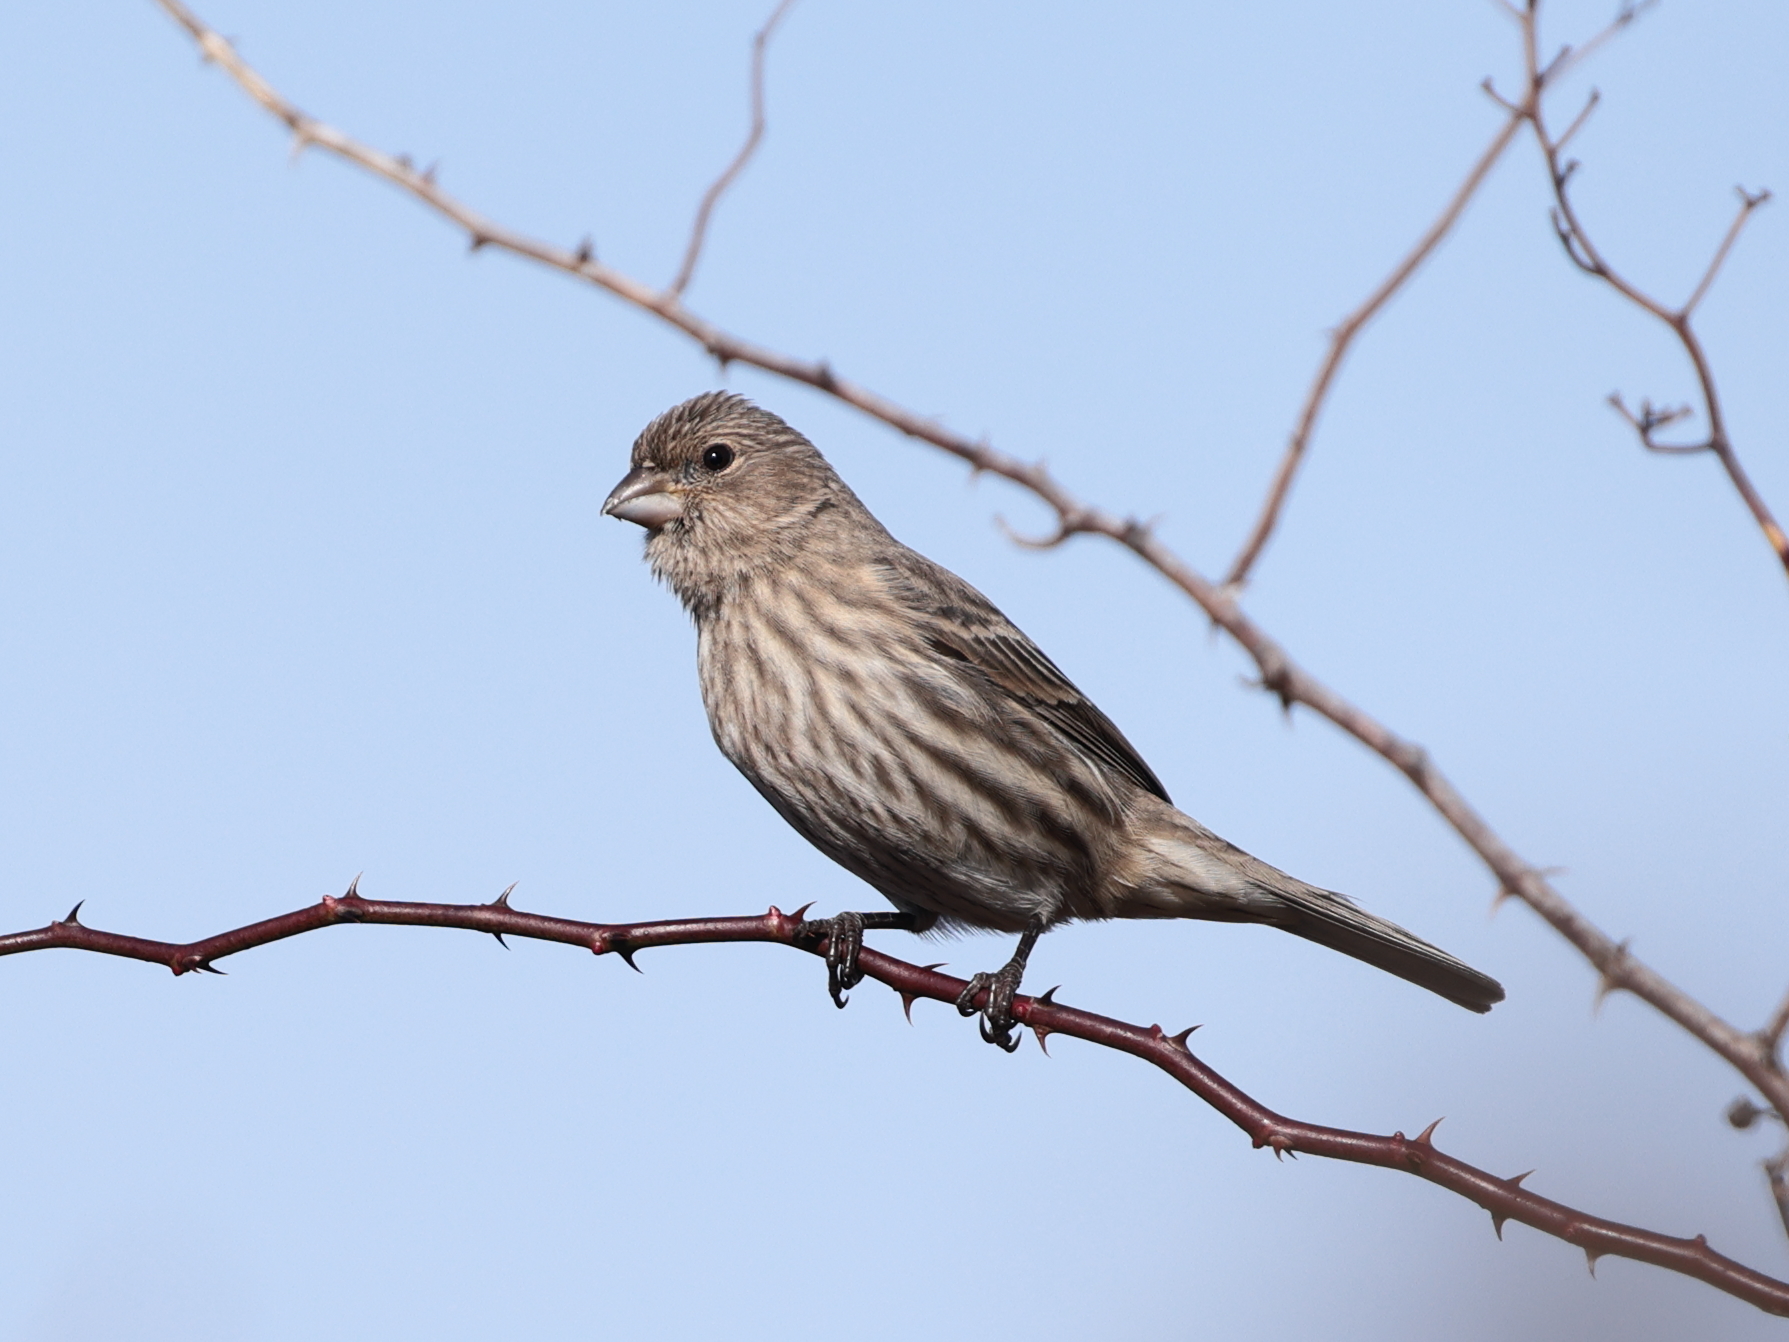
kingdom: Animalia
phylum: Chordata
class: Aves
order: Passeriformes
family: Fringillidae
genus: Haemorhous
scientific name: Haemorhous mexicanus
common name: House finch
